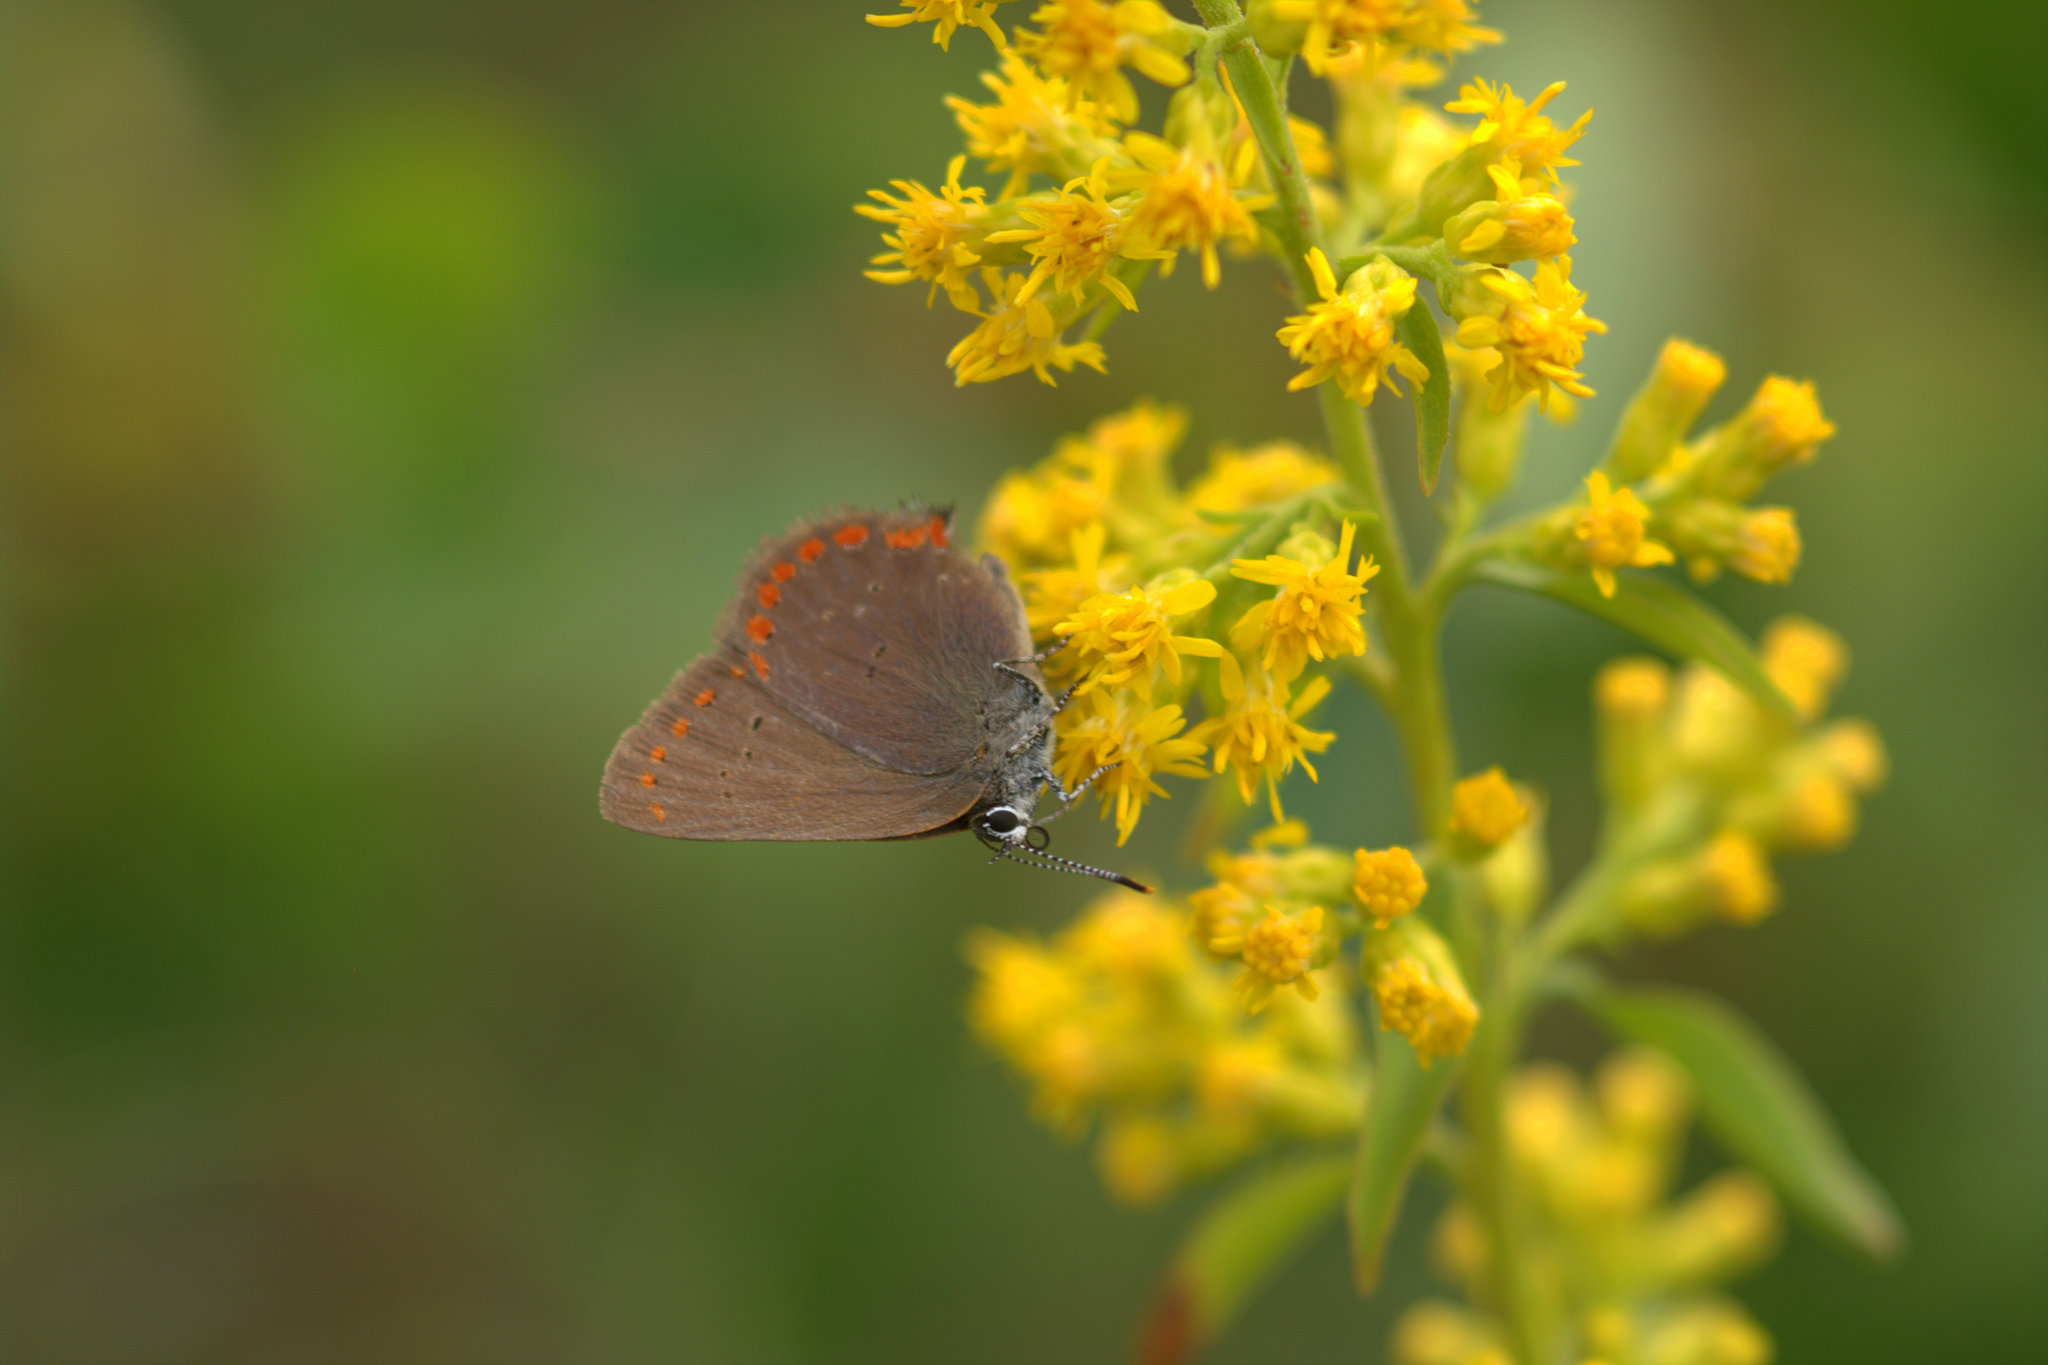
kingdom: Animalia
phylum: Arthropoda
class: Insecta
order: Lepidoptera
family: Lycaenidae
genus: Harkenclenus
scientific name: Harkenclenus titus
